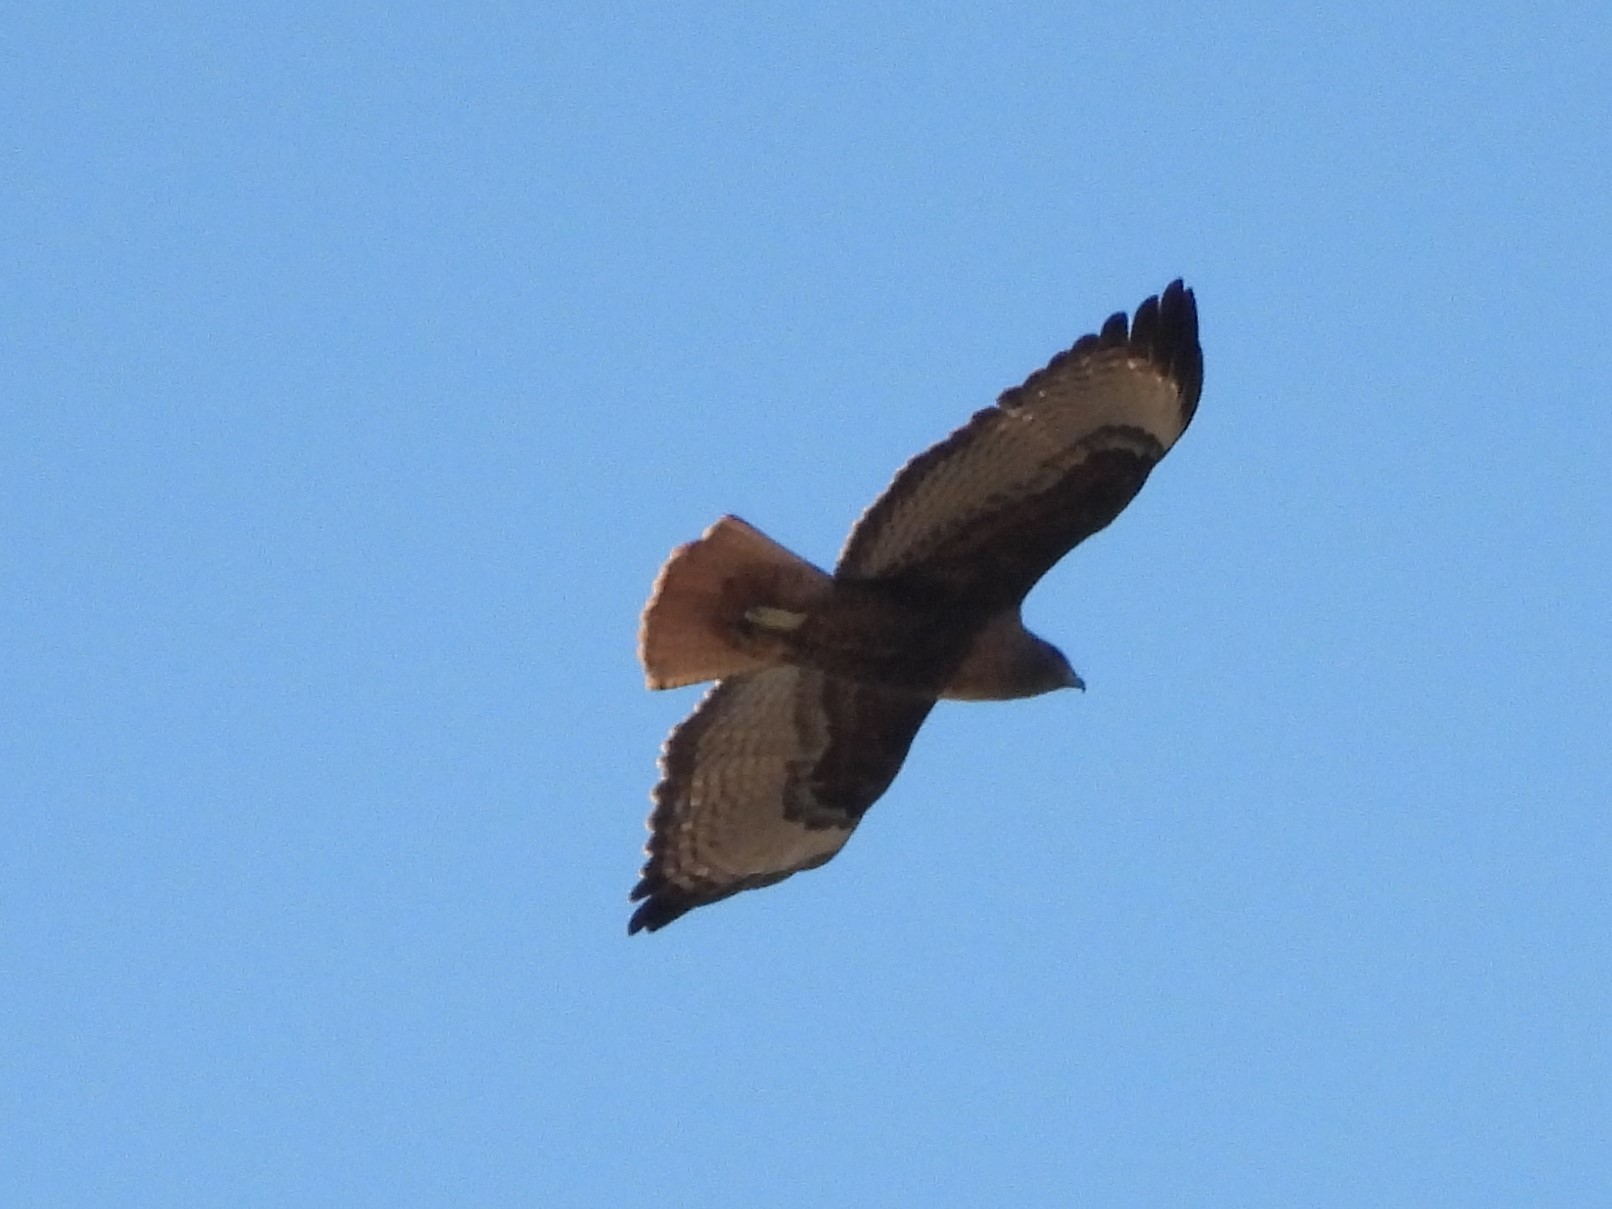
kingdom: Animalia
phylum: Chordata
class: Aves
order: Accipitriformes
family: Accipitridae
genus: Buteo
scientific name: Buteo jamaicensis
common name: Red-tailed hawk
